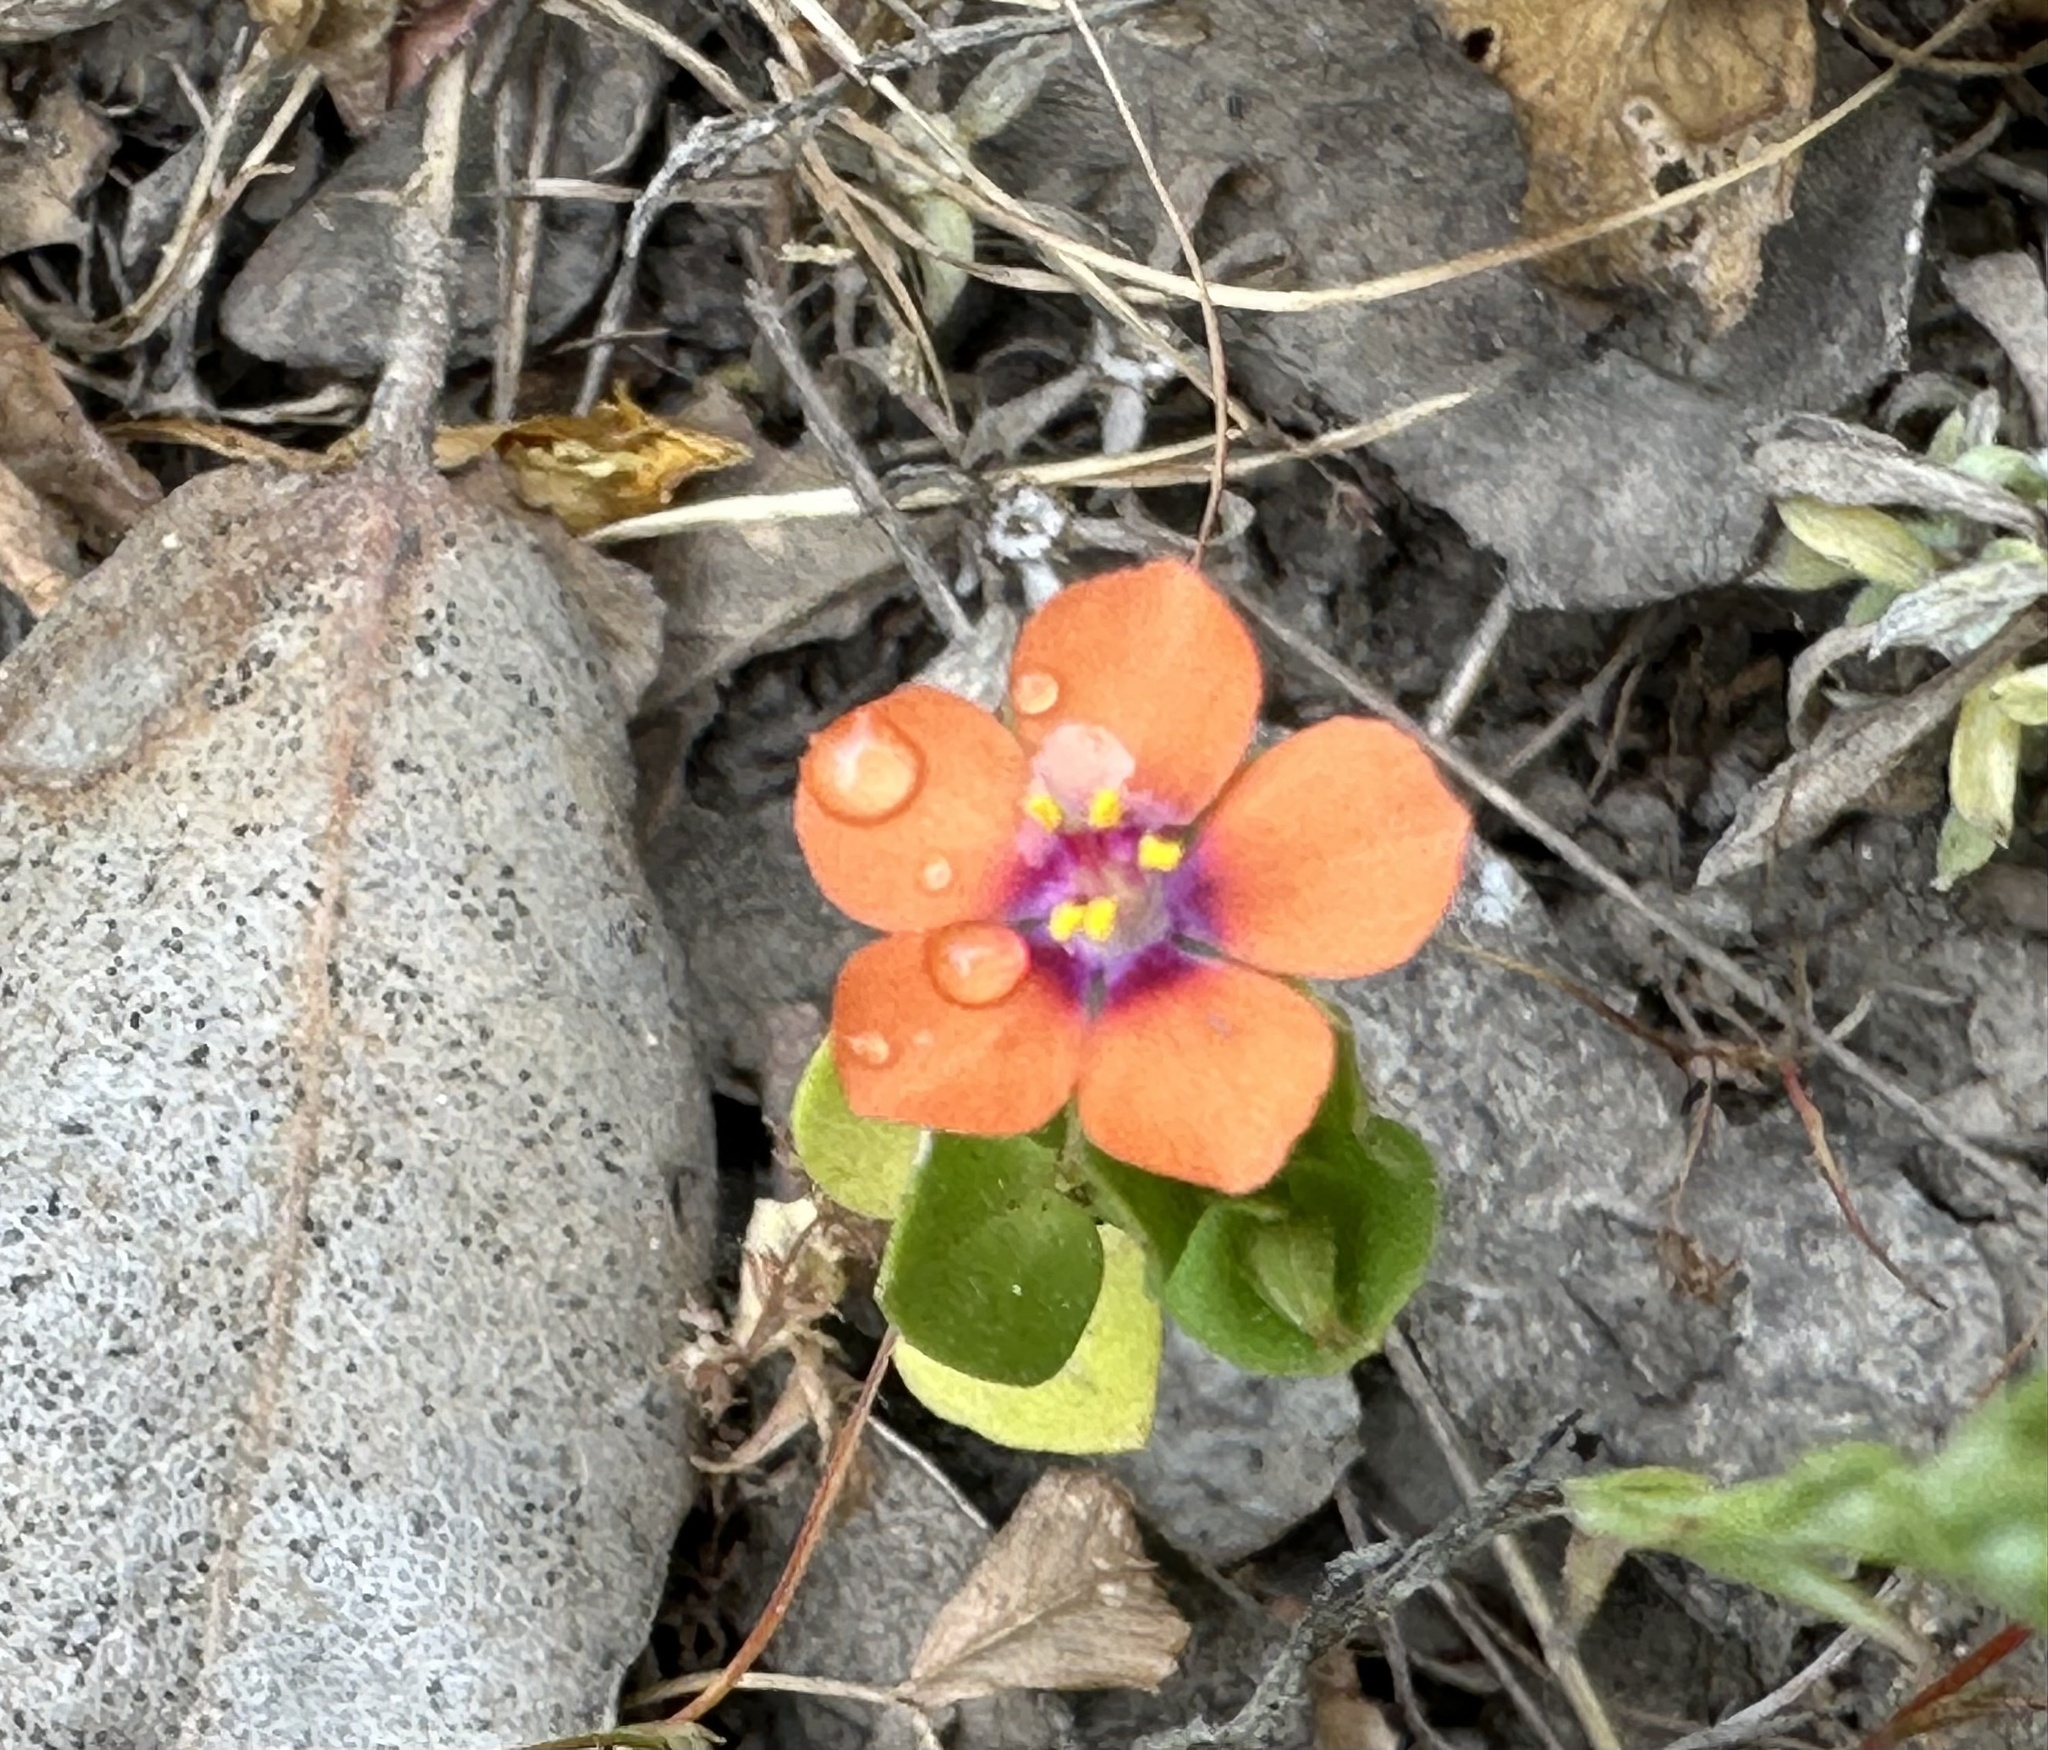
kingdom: Plantae
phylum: Tracheophyta
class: Magnoliopsida
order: Ericales
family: Primulaceae
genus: Lysimachia
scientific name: Lysimachia arvensis
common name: Scarlet pimpernel
